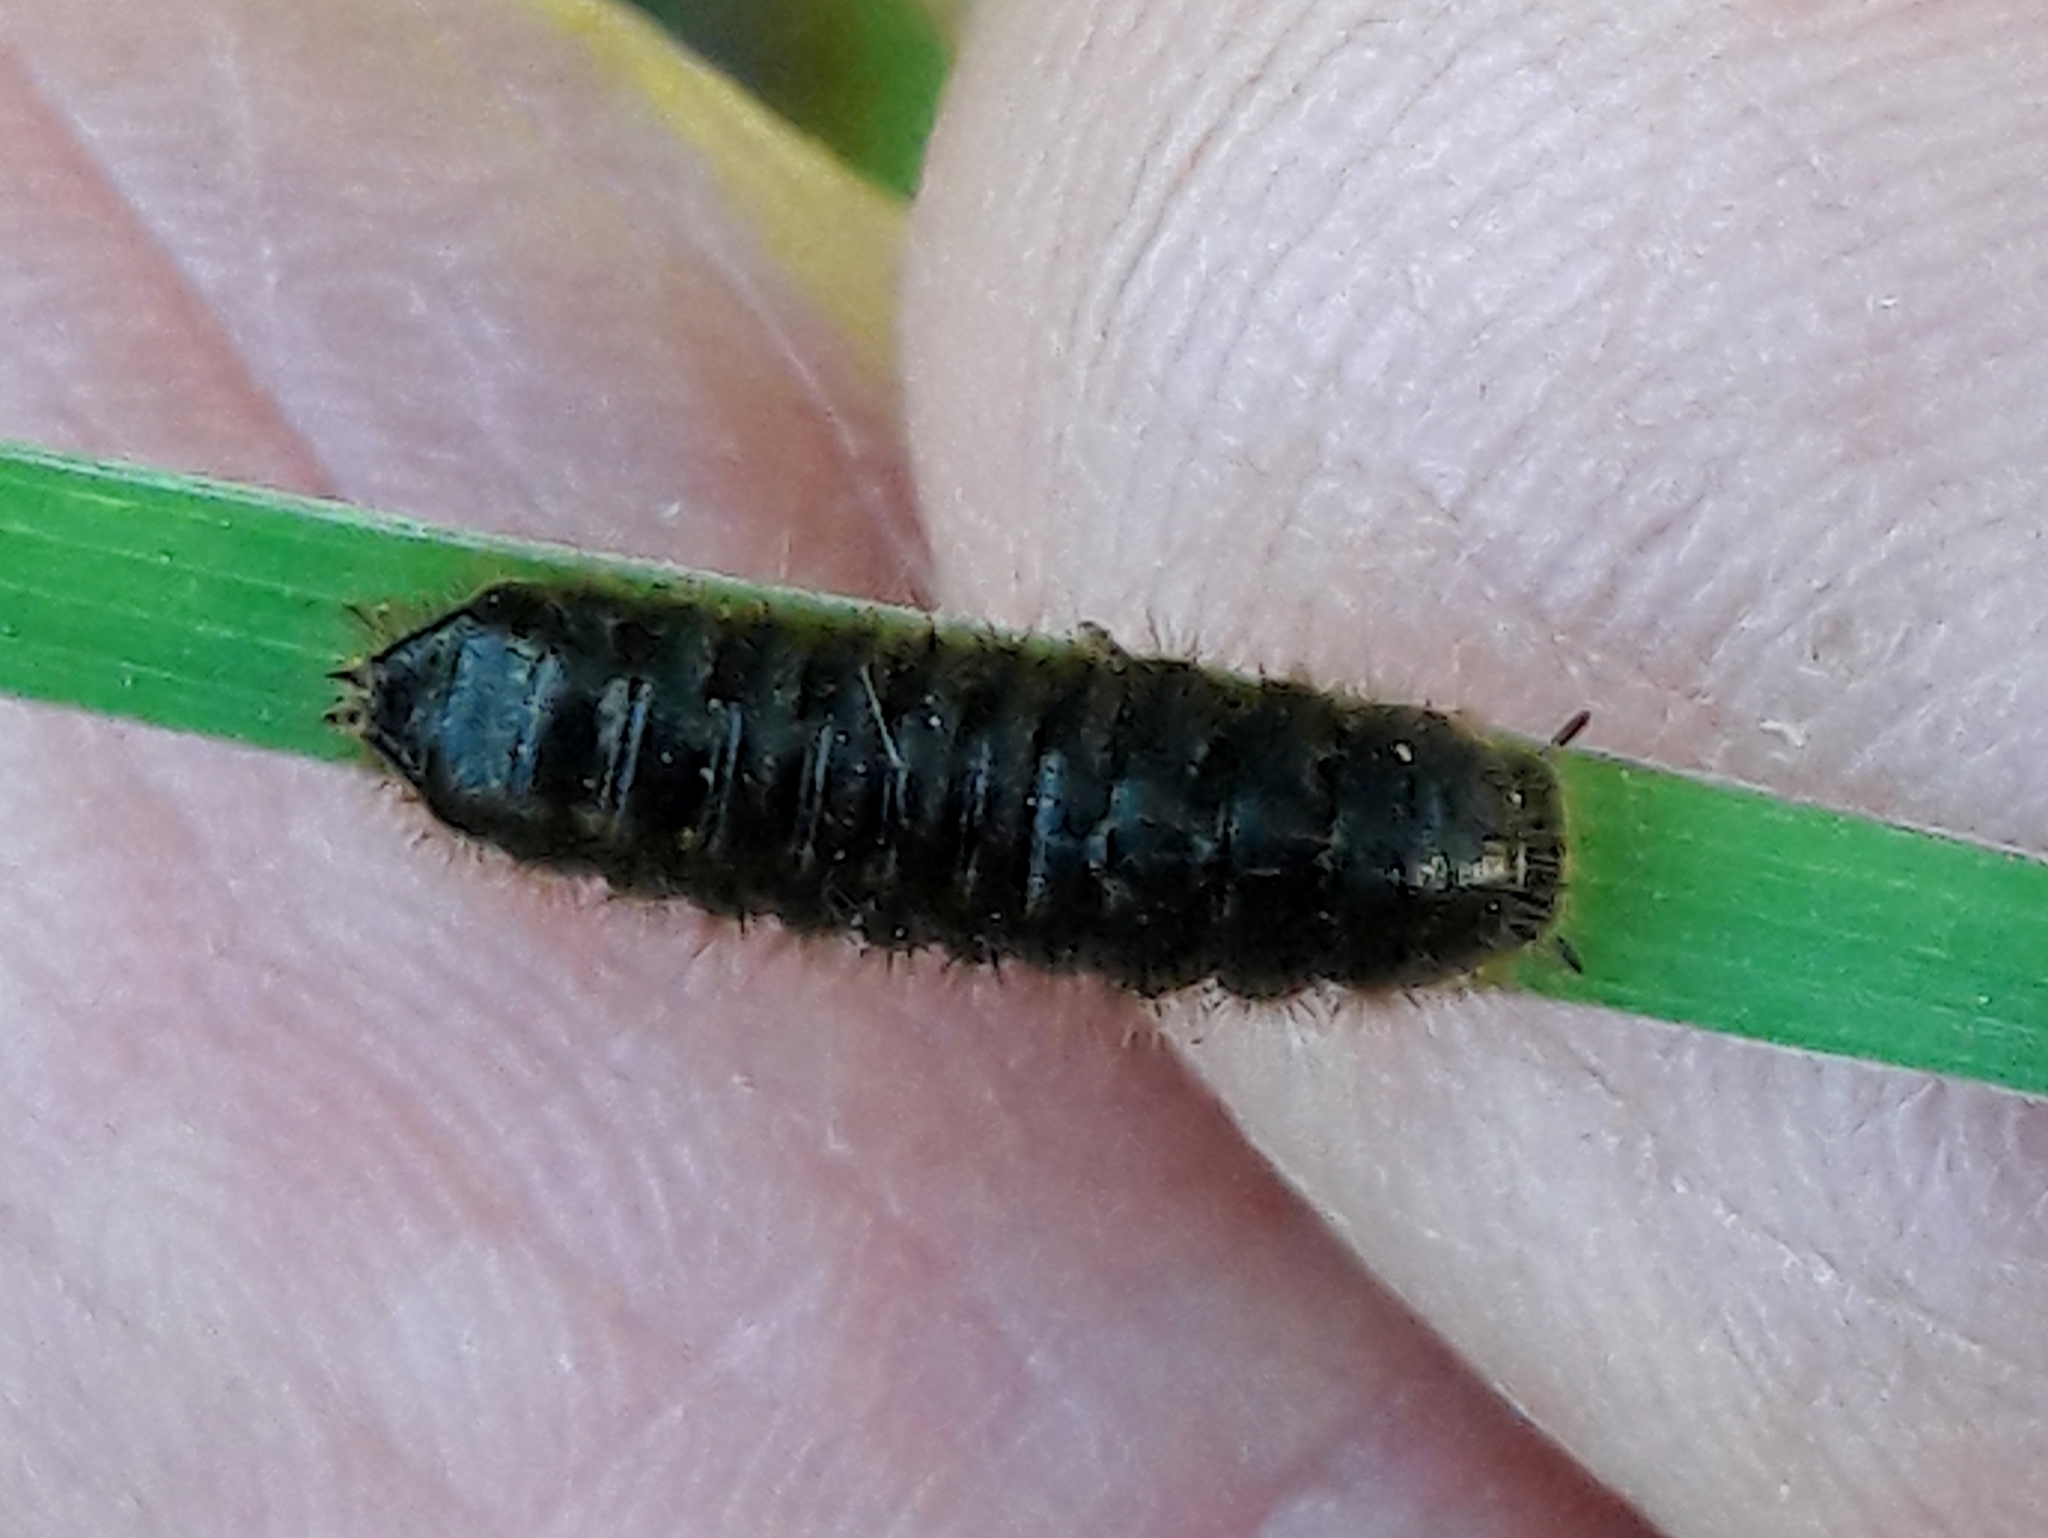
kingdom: Animalia
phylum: Arthropoda
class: Insecta
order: Coleoptera
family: Tenebrionidae
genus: Lagria
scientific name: Lagria villosa
